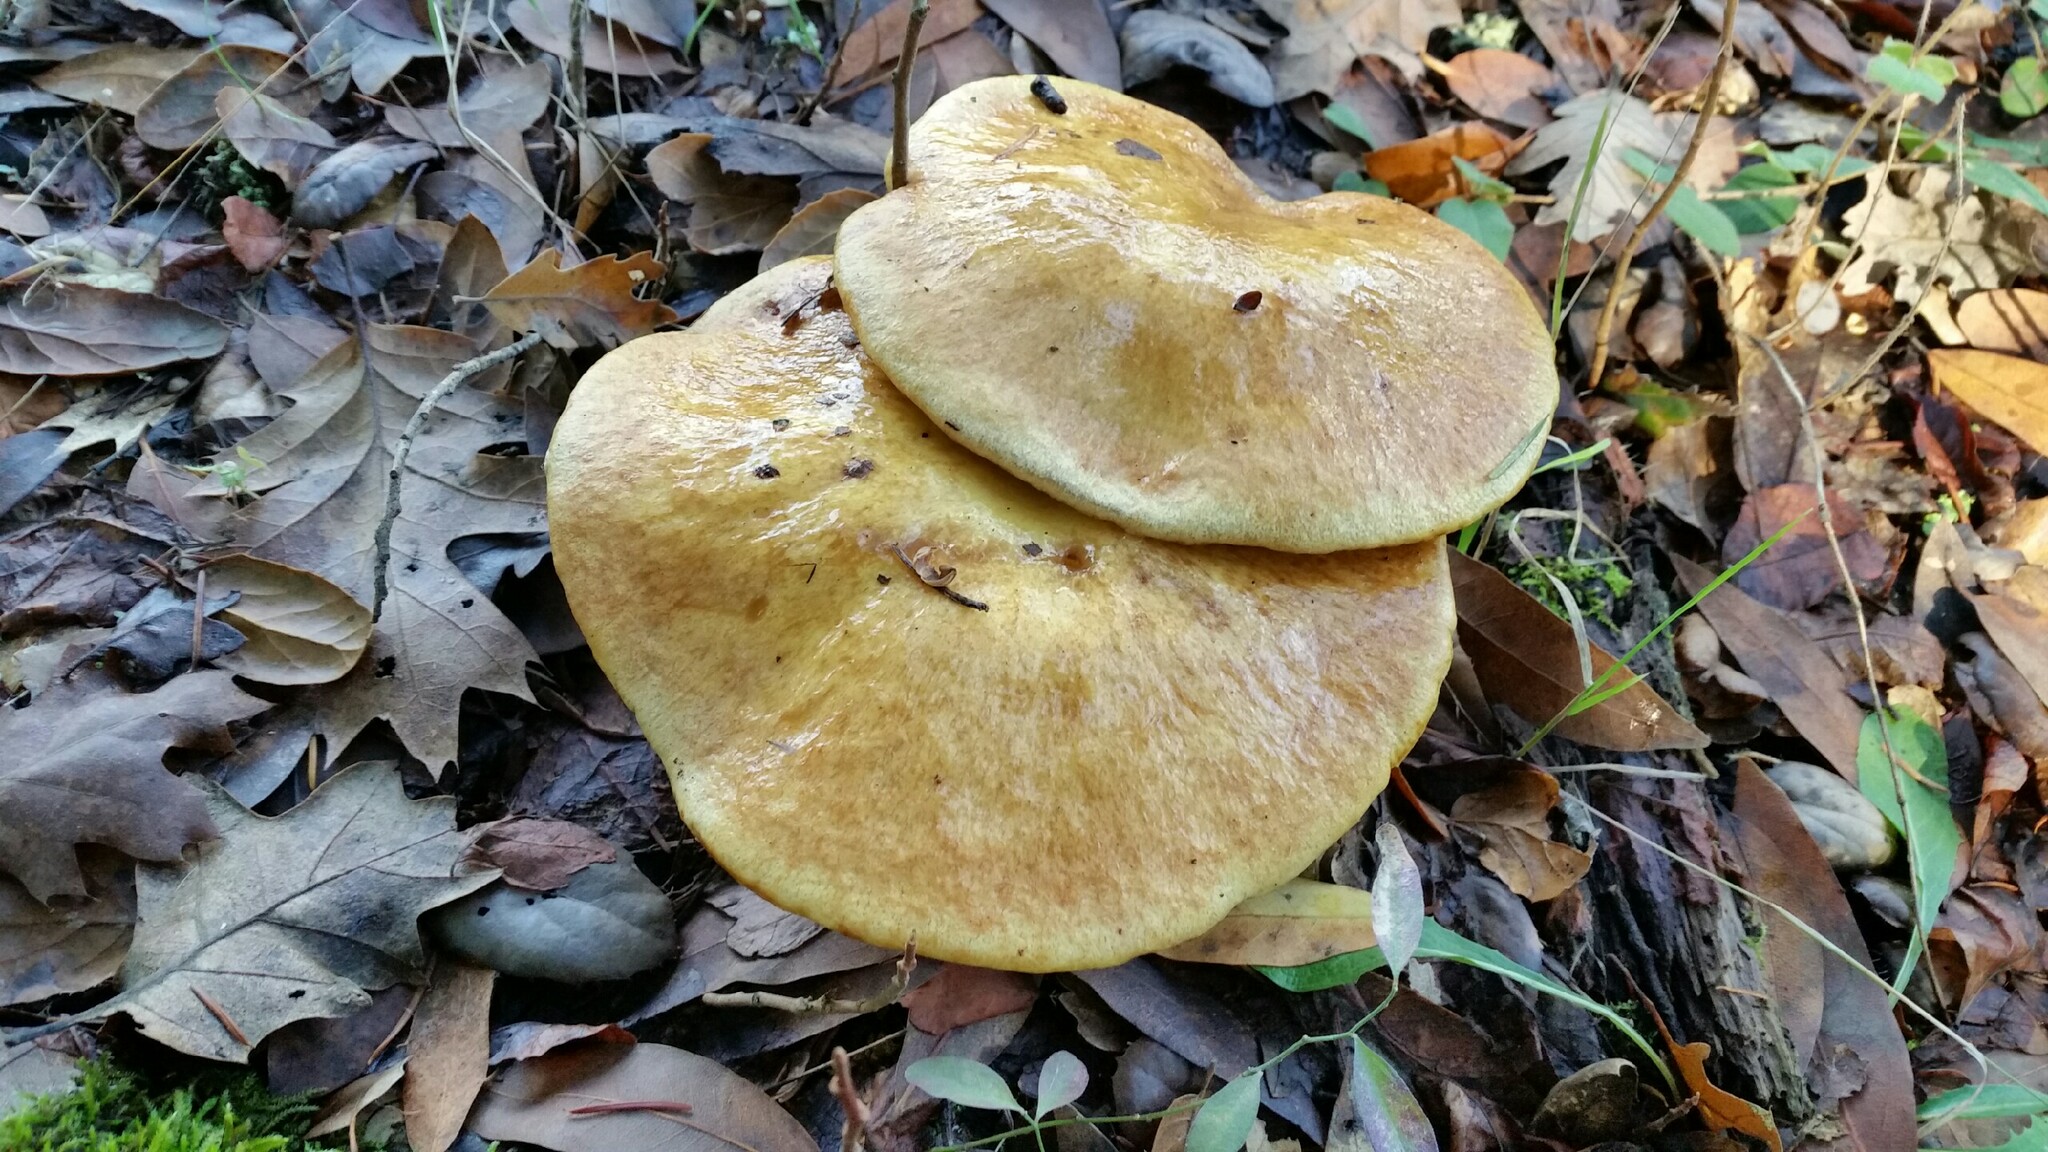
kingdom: Fungi
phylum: Basidiomycota
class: Agaricomycetes
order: Boletales
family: Suillaceae
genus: Suillus
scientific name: Suillus caerulescens
